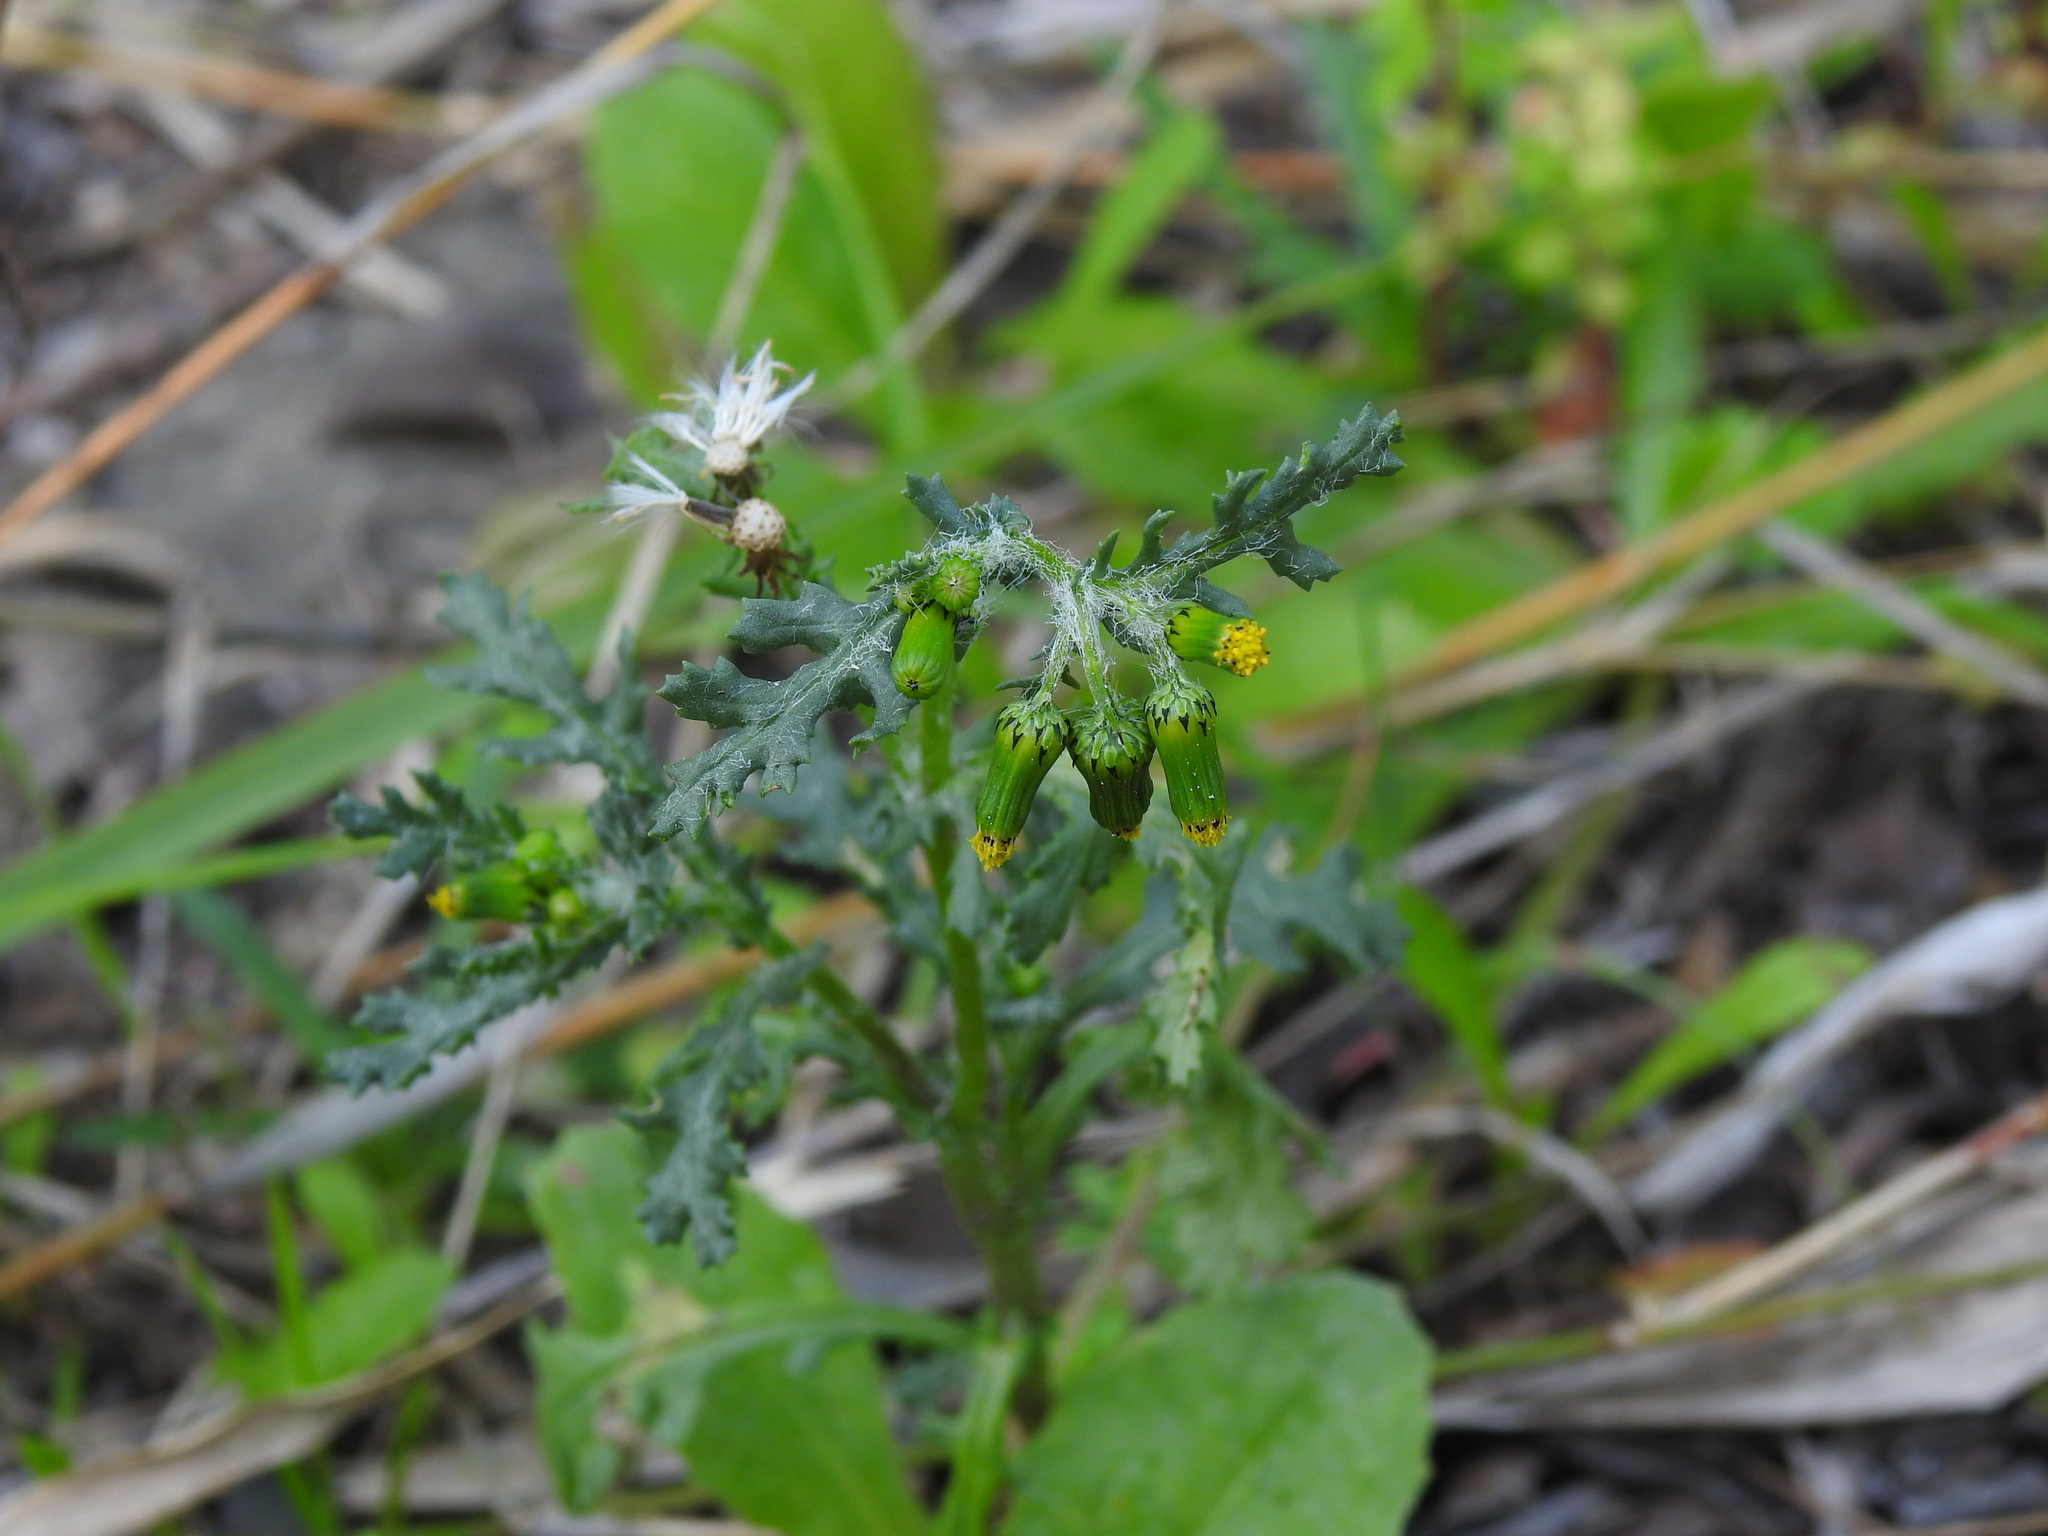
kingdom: Plantae
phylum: Tracheophyta
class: Magnoliopsida
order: Asterales
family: Asteraceae
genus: Senecio
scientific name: Senecio vulgaris
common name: Old-man-in-the-spring
